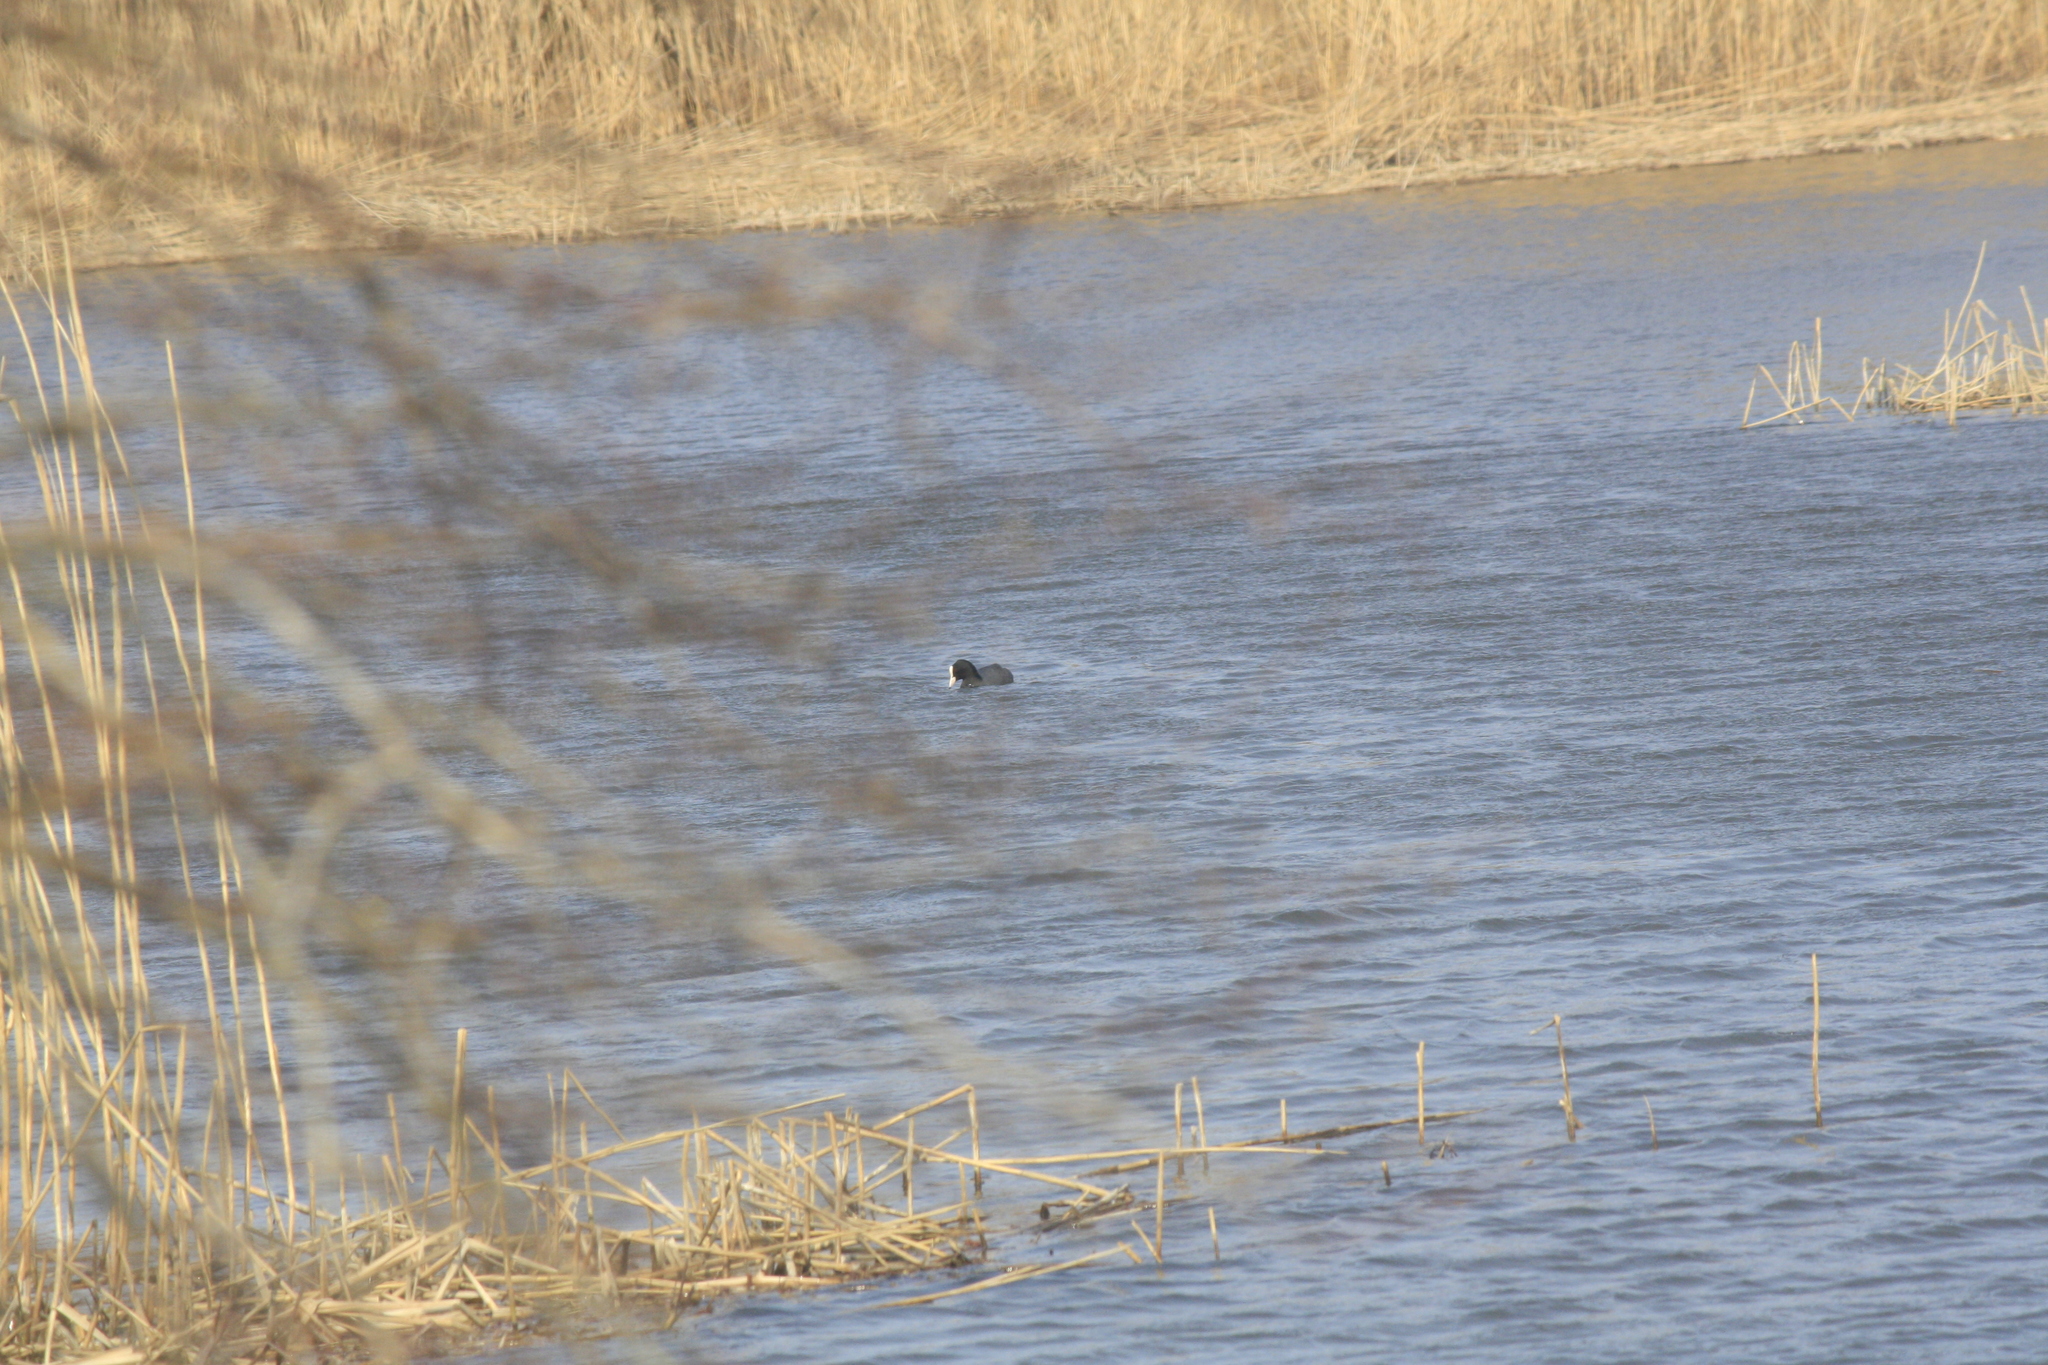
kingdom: Animalia
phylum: Chordata
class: Aves
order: Gruiformes
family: Rallidae
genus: Fulica
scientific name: Fulica atra
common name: Eurasian coot
